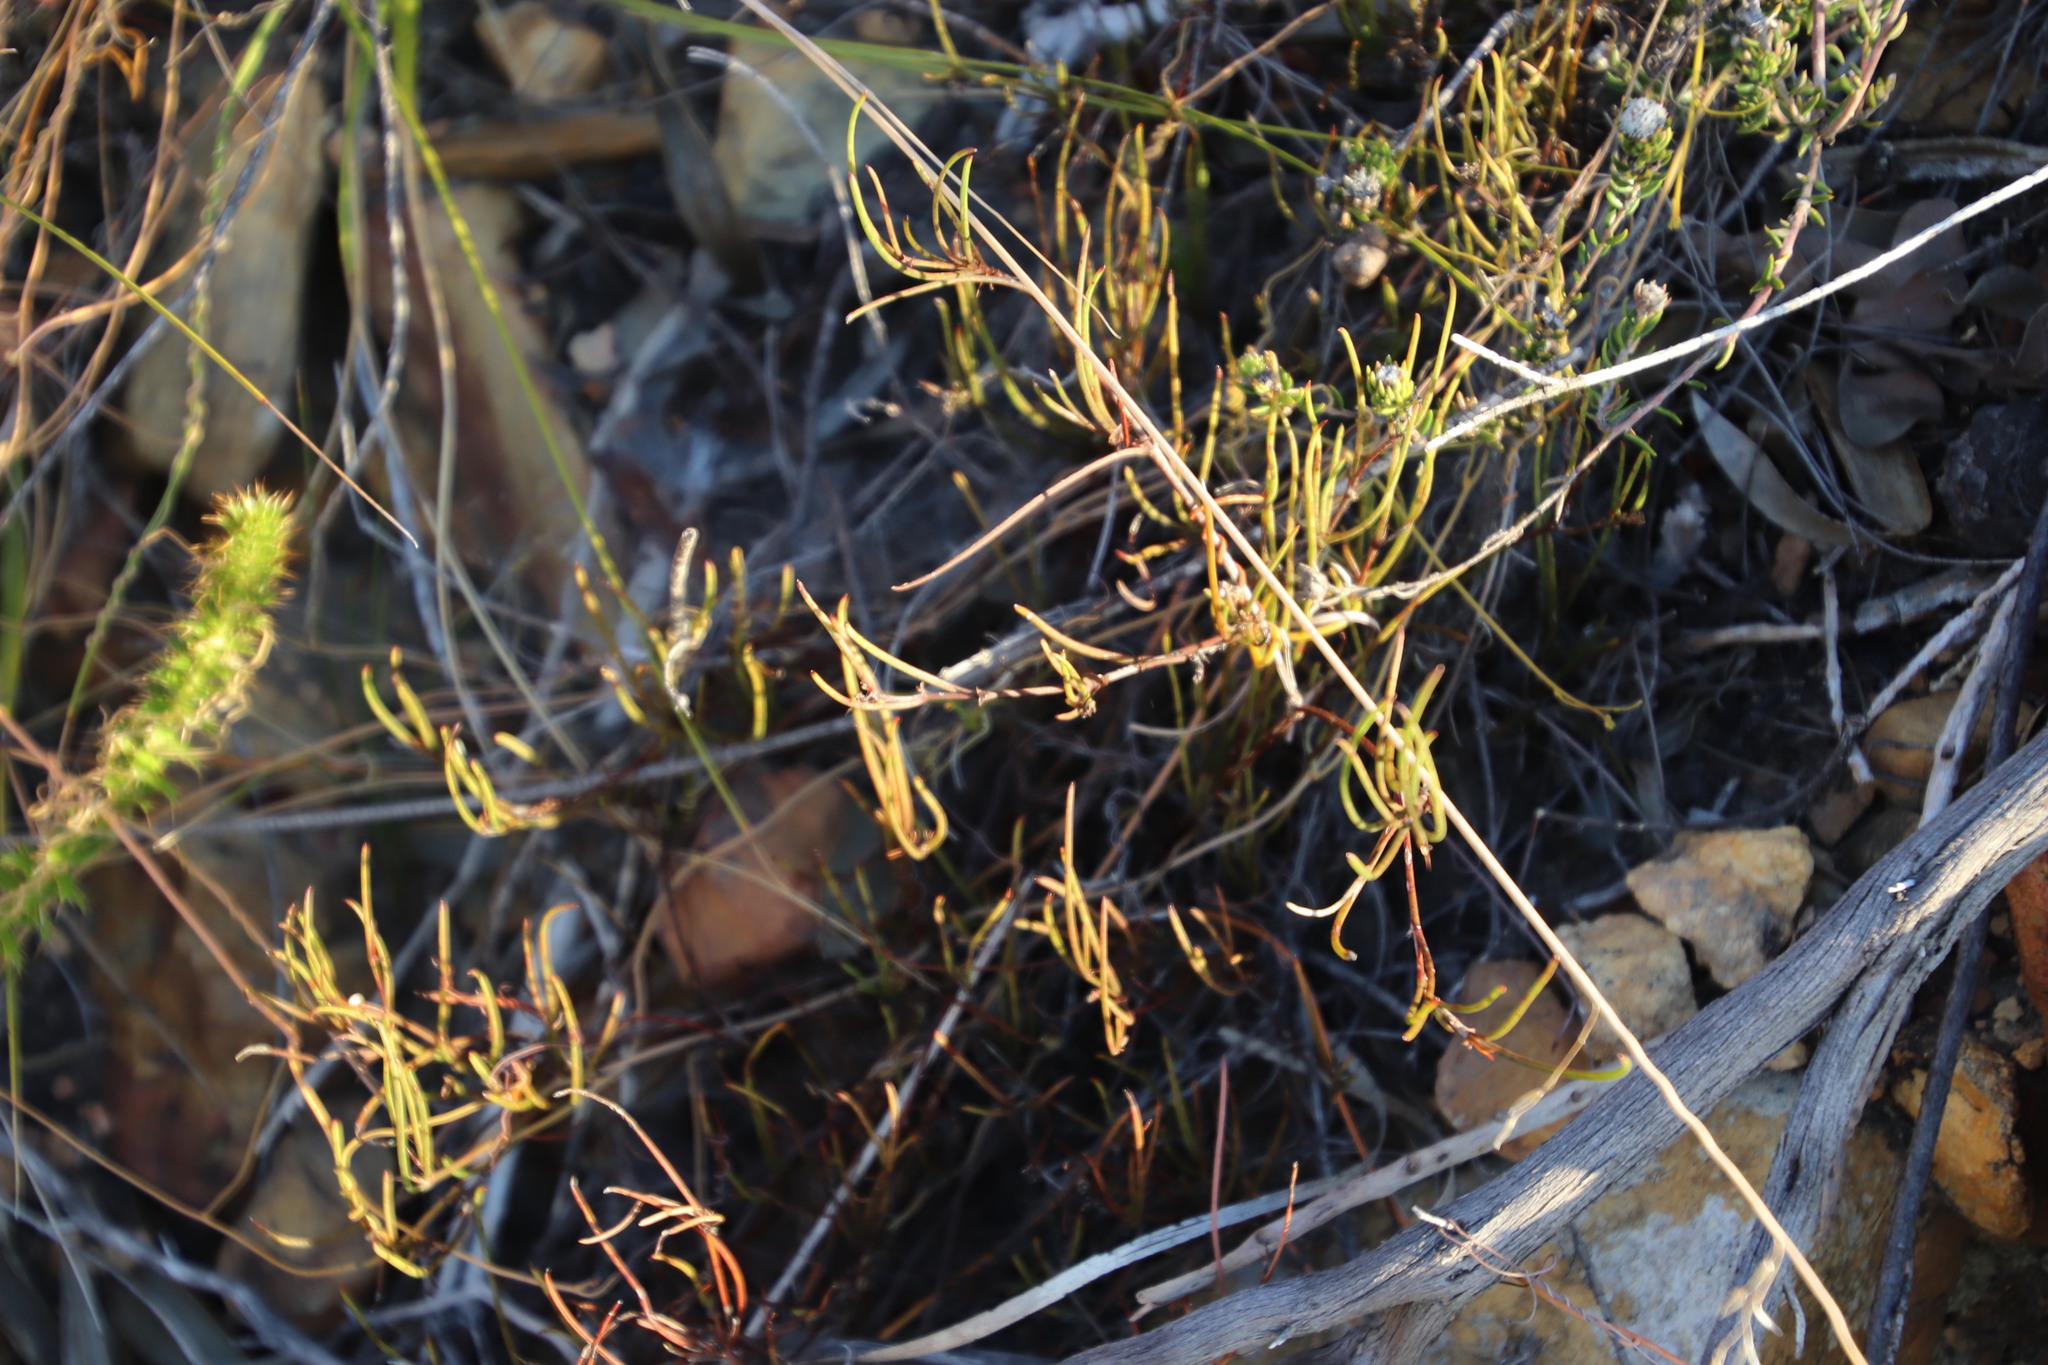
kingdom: Plantae
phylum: Tracheophyta
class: Magnoliopsida
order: Apiales
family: Apiaceae
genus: Centella
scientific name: Centella macrocarpa
